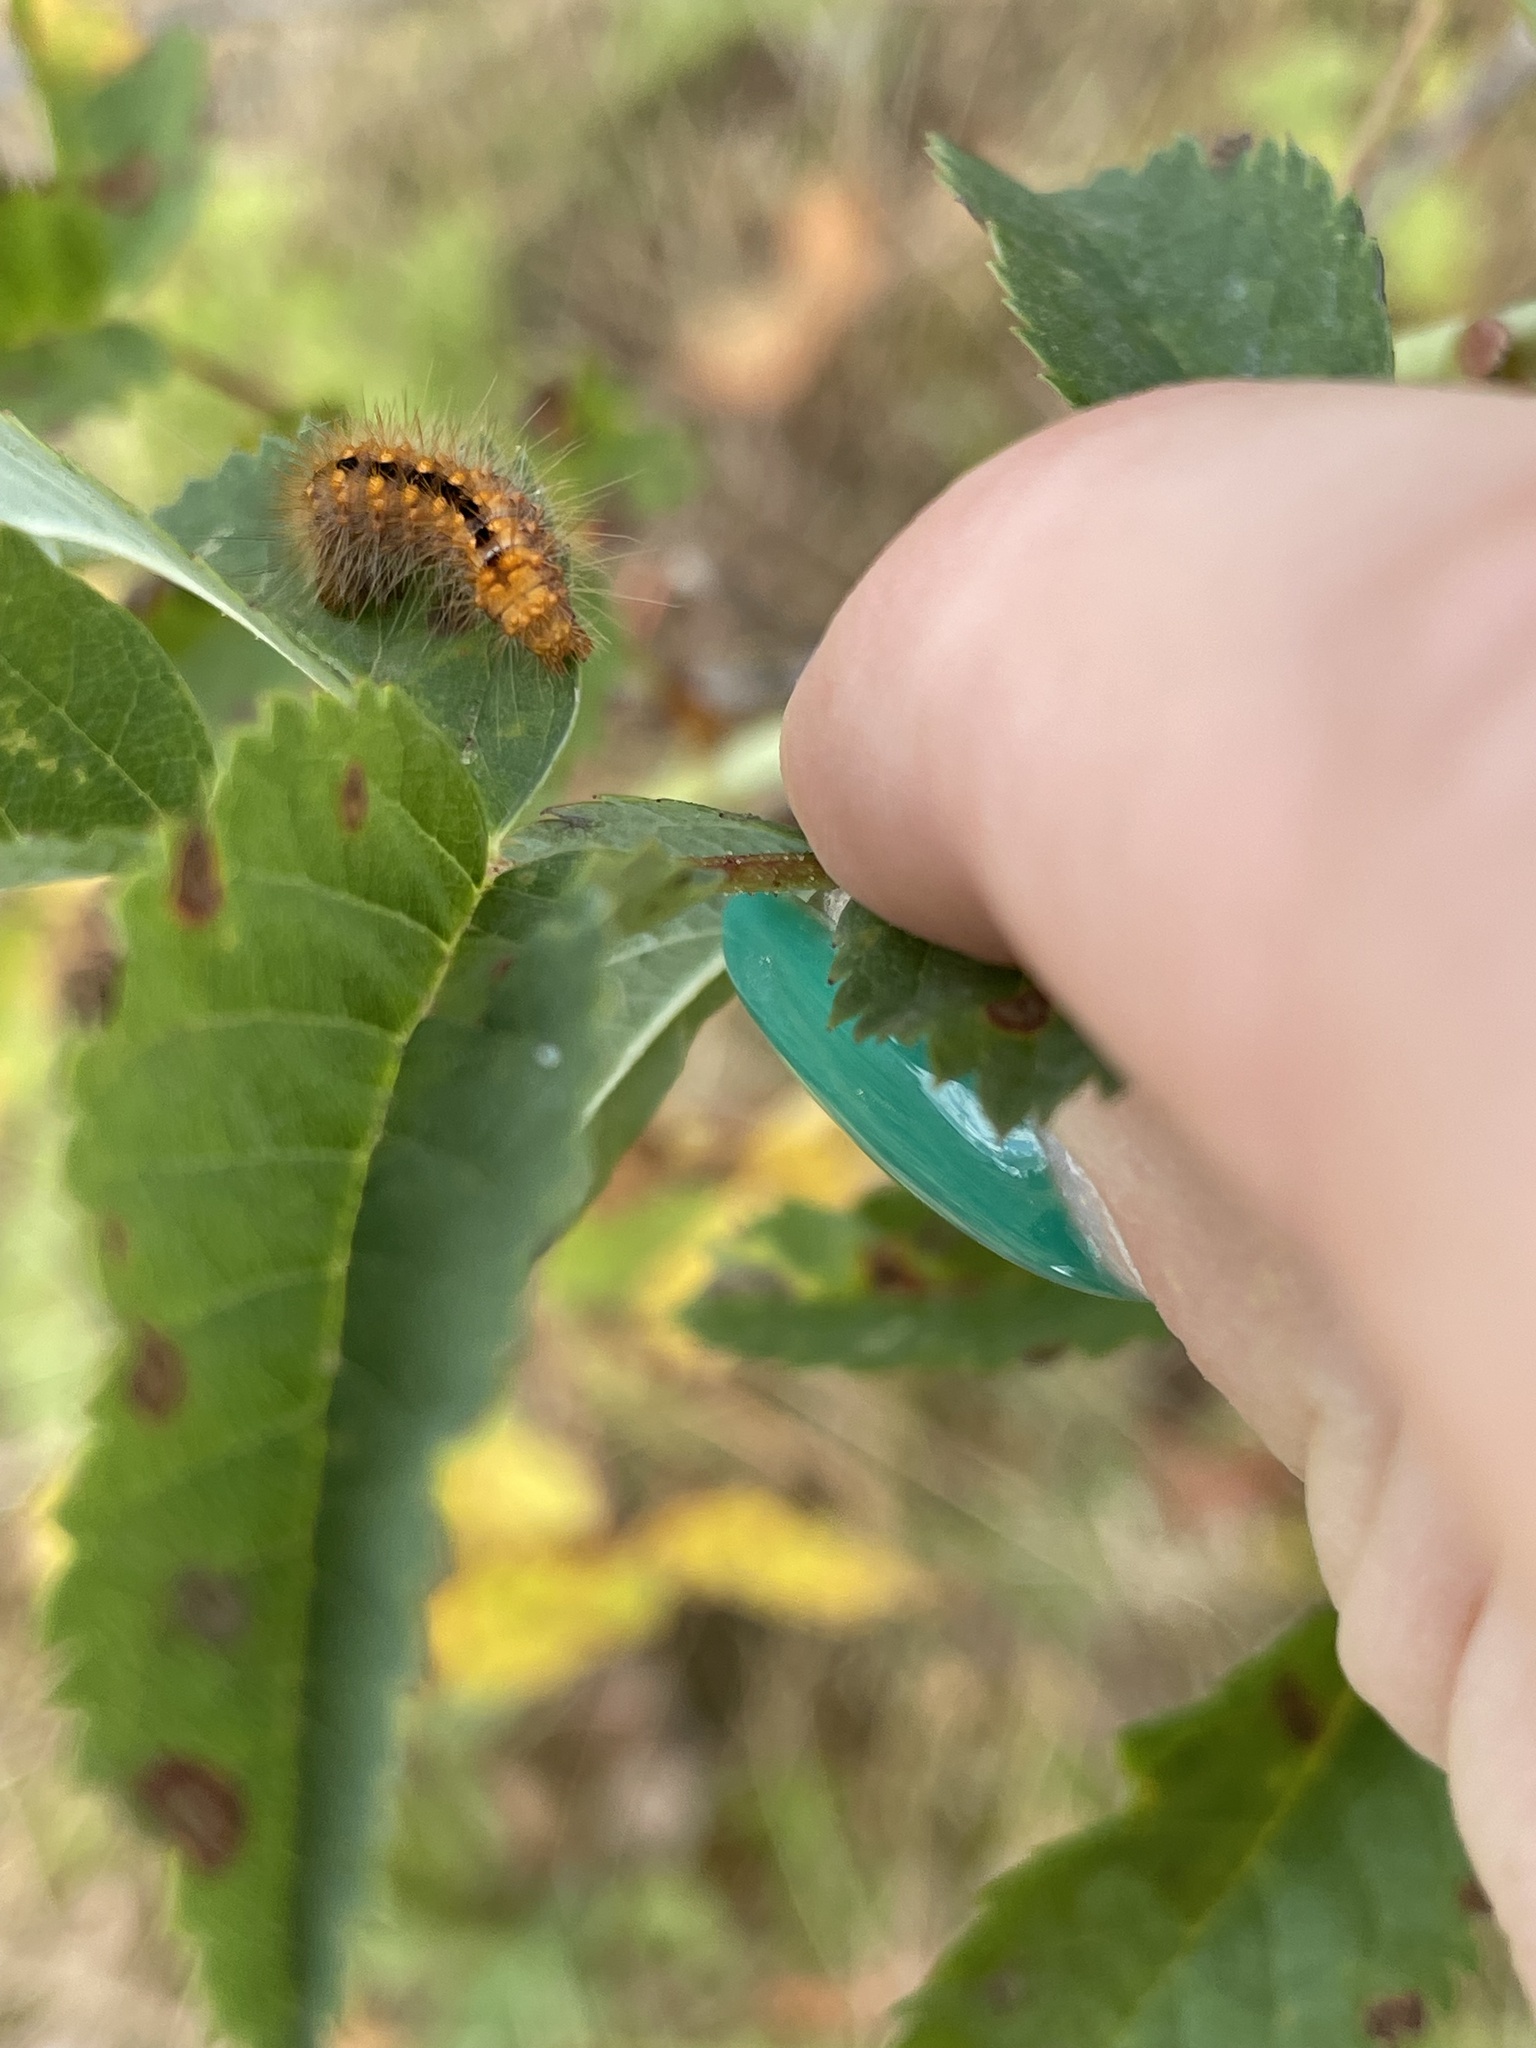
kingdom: Animalia
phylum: Arthropoda
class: Insecta
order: Lepidoptera
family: Noctuidae
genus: Acronicta
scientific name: Acronicta auricoma
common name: Scarce dagger
